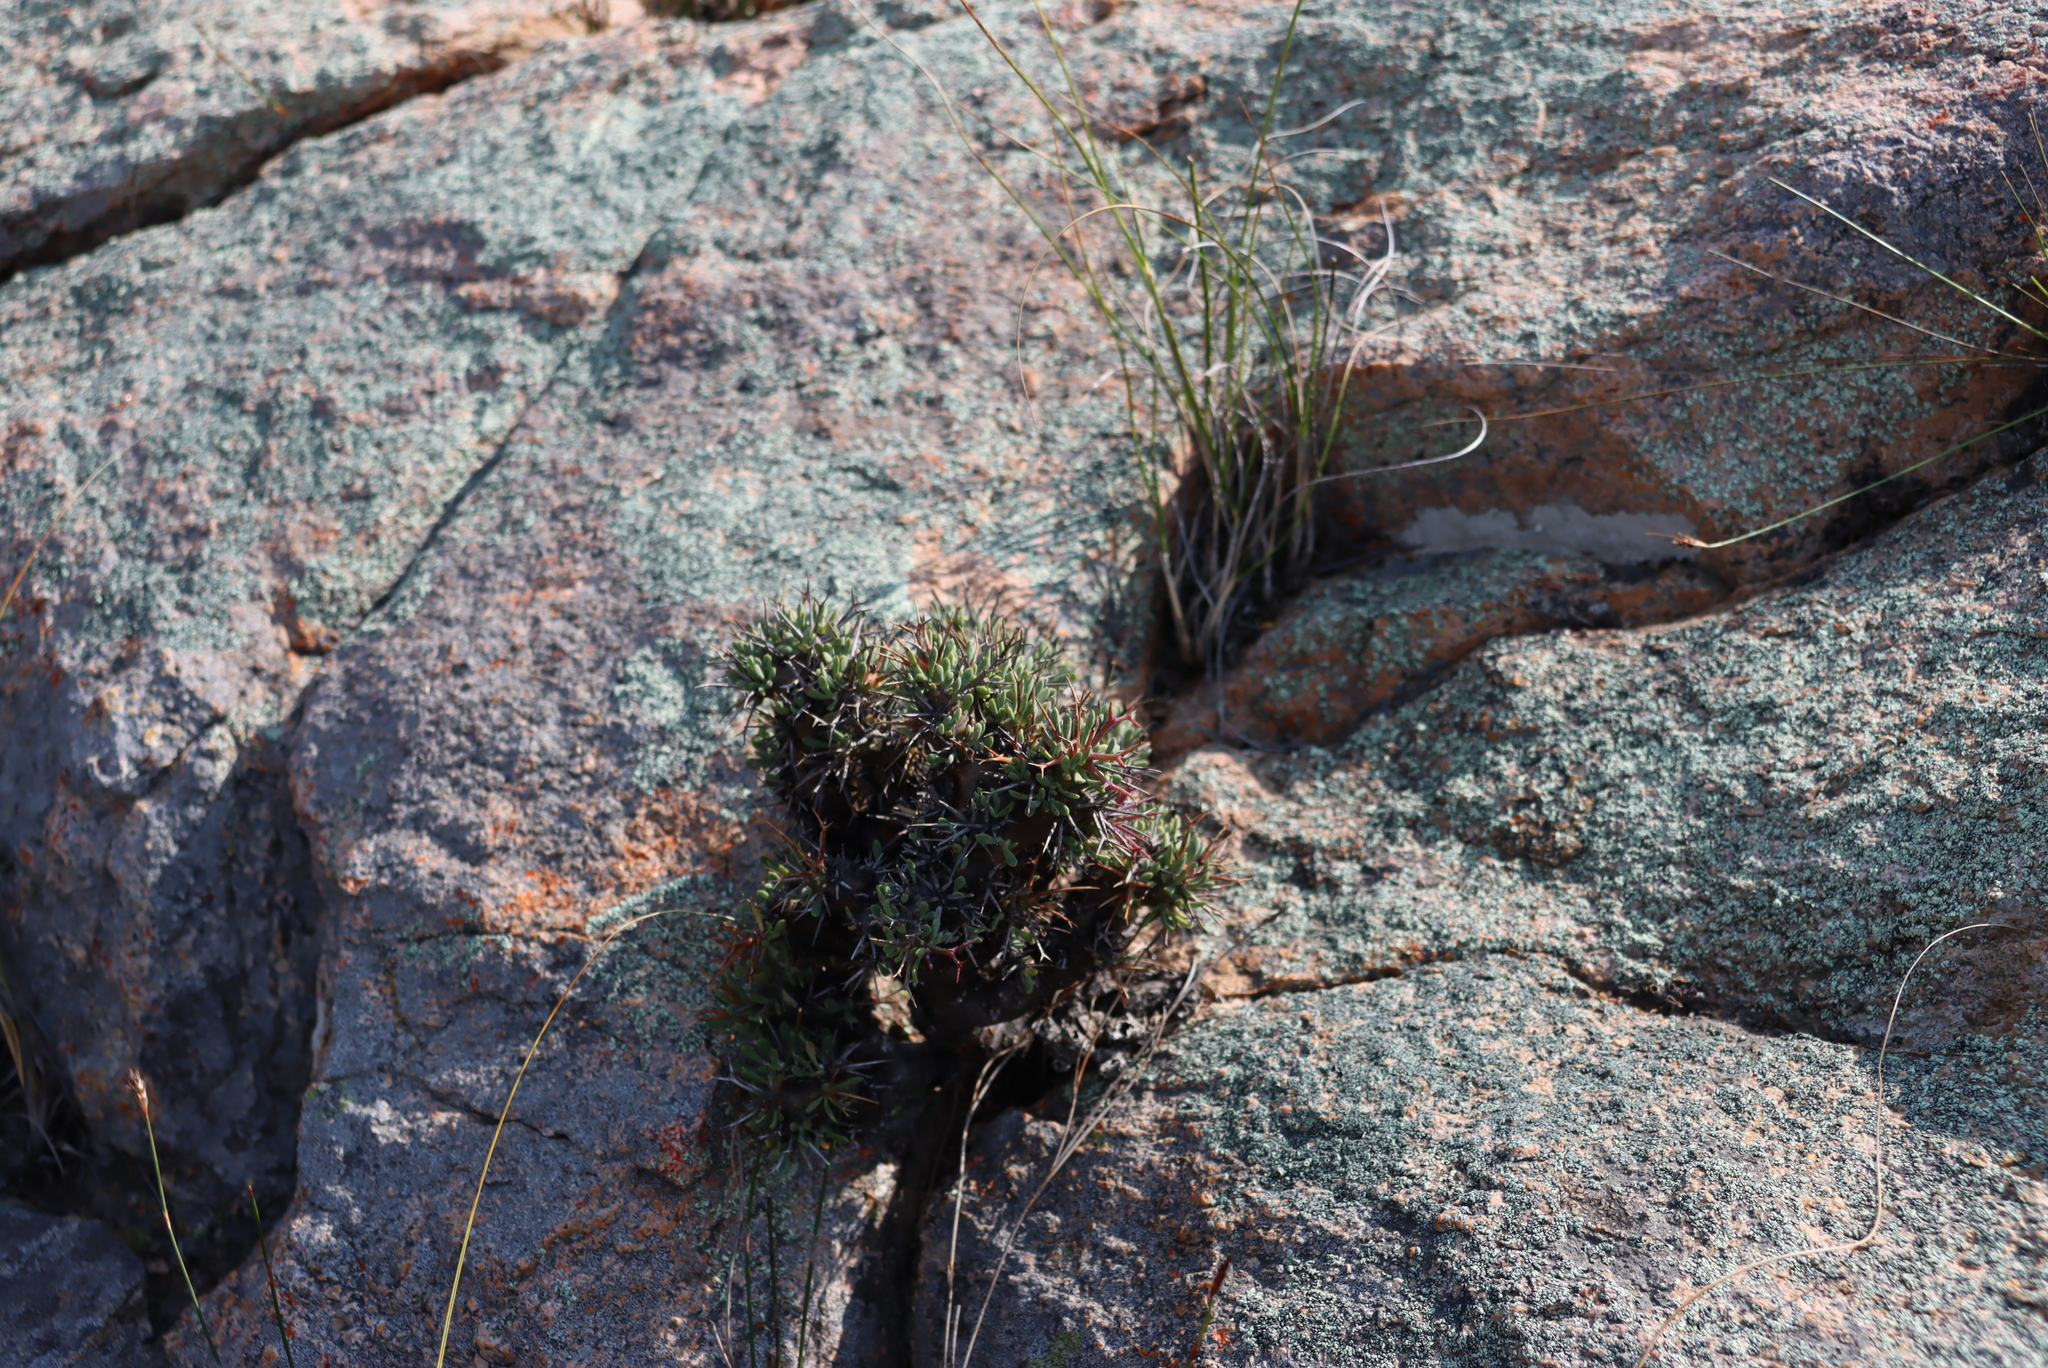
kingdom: Plantae
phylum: Tracheophyta
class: Magnoliopsida
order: Asterales
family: Asteraceae
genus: Othonna
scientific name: Othonna euphorbioides
